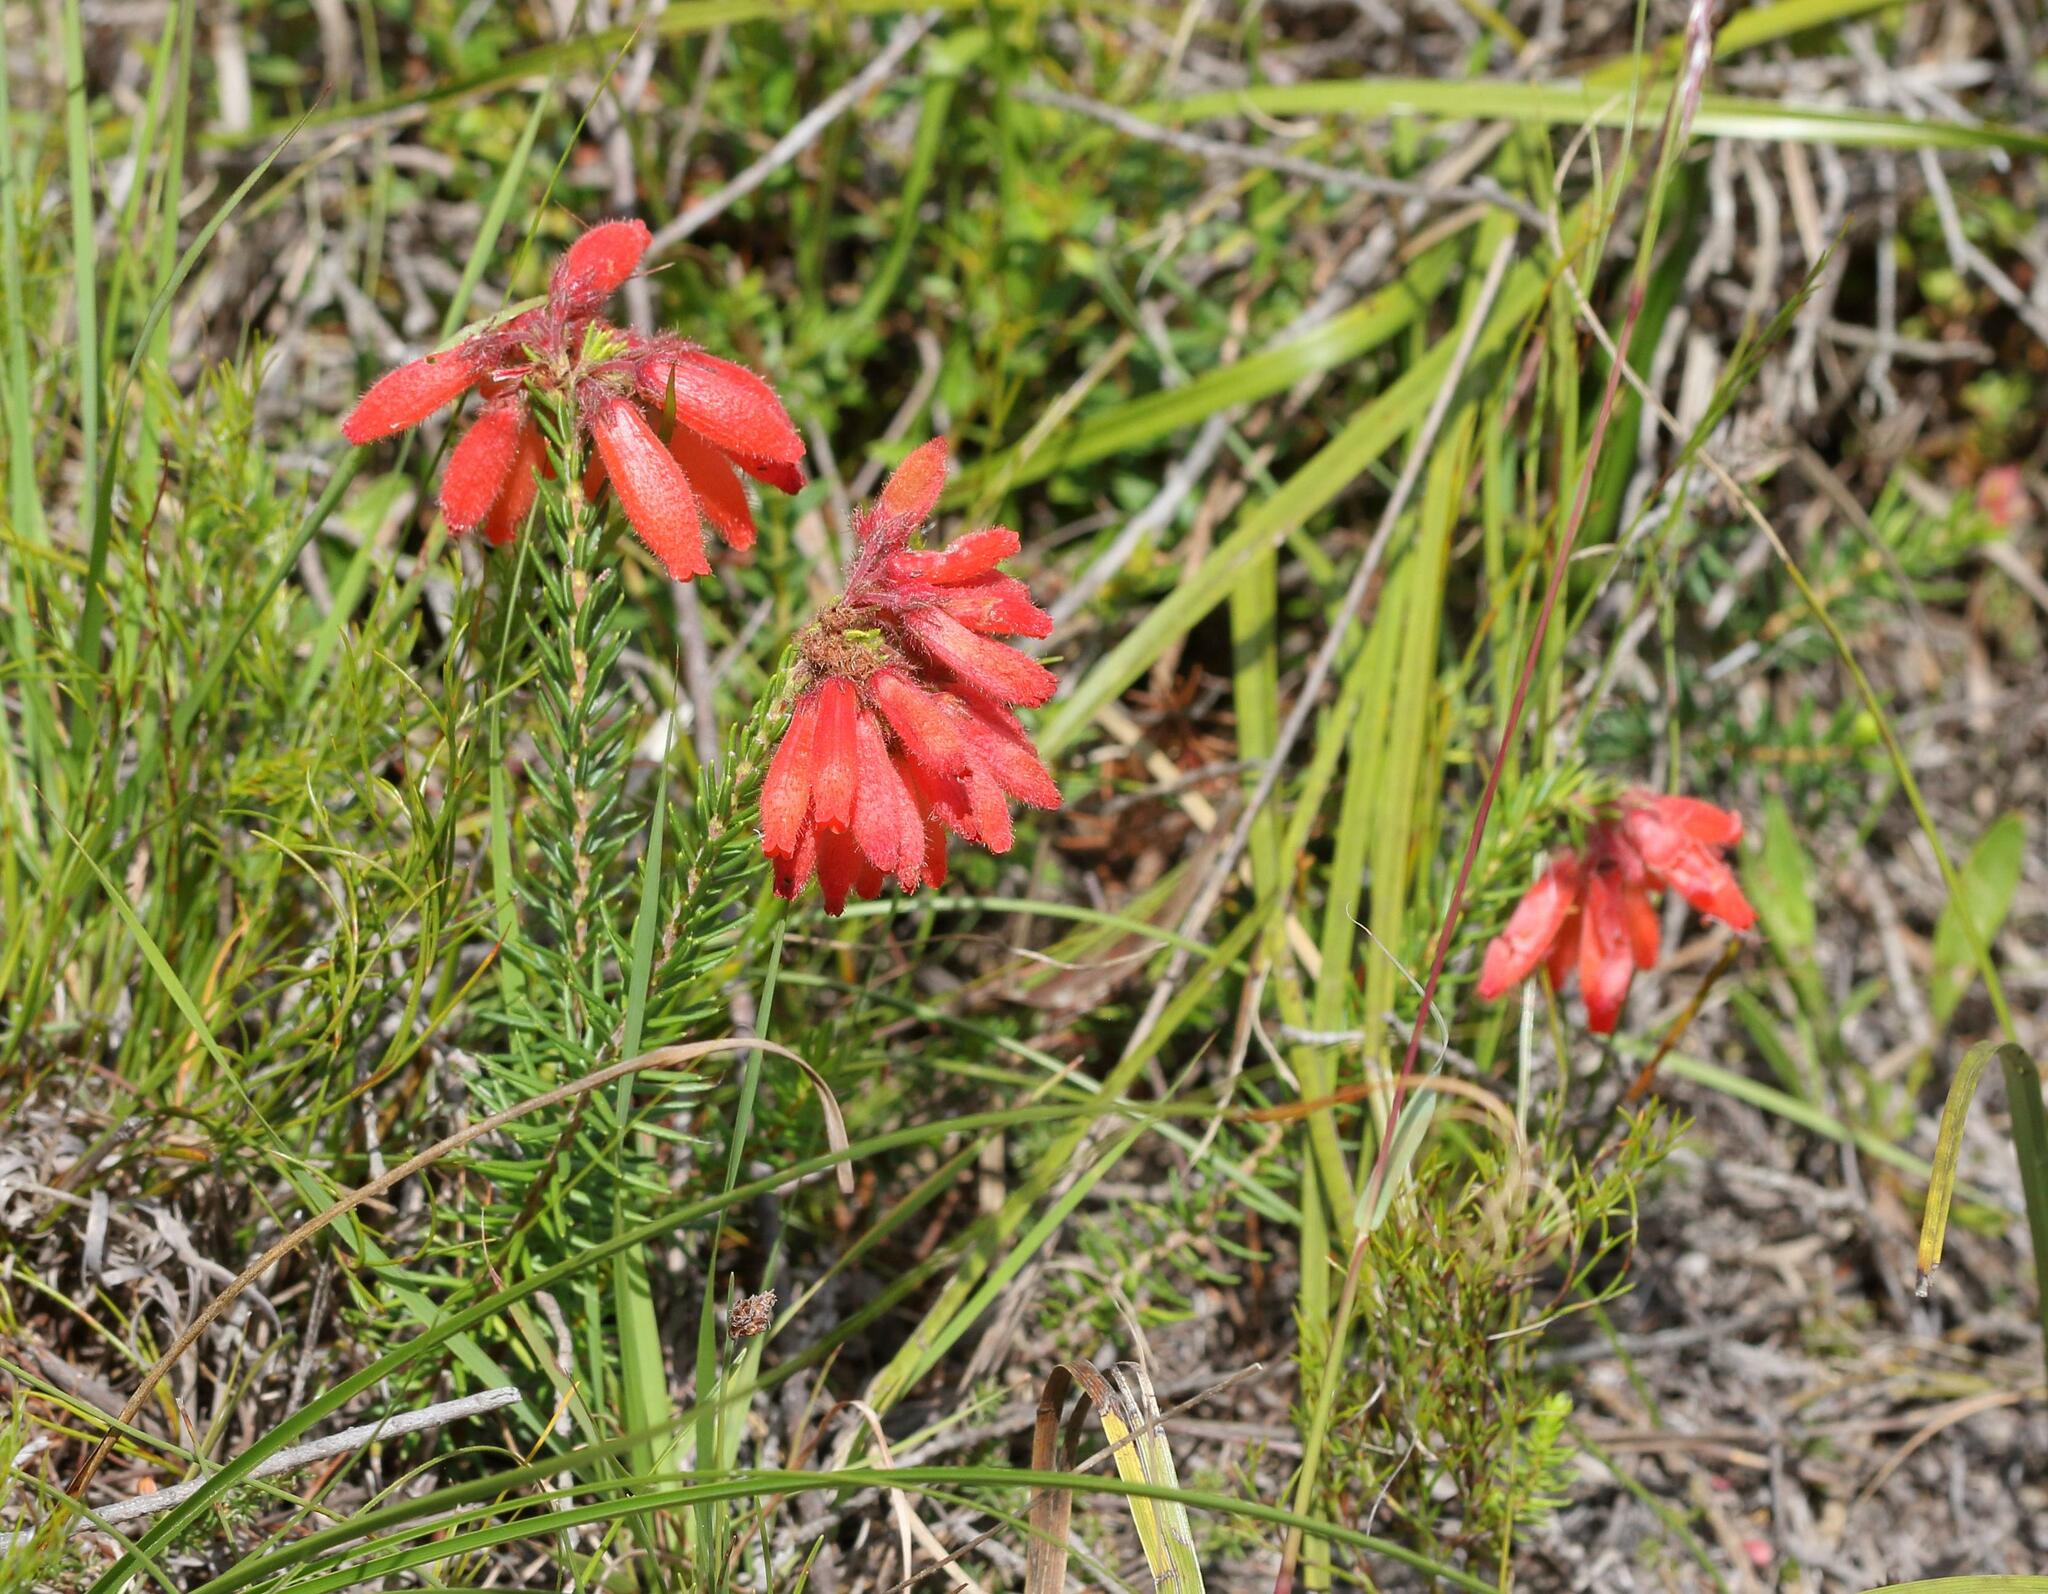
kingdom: Plantae
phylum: Tracheophyta
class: Magnoliopsida
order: Ericales
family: Ericaceae
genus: Erica
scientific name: Erica cerinthoides
